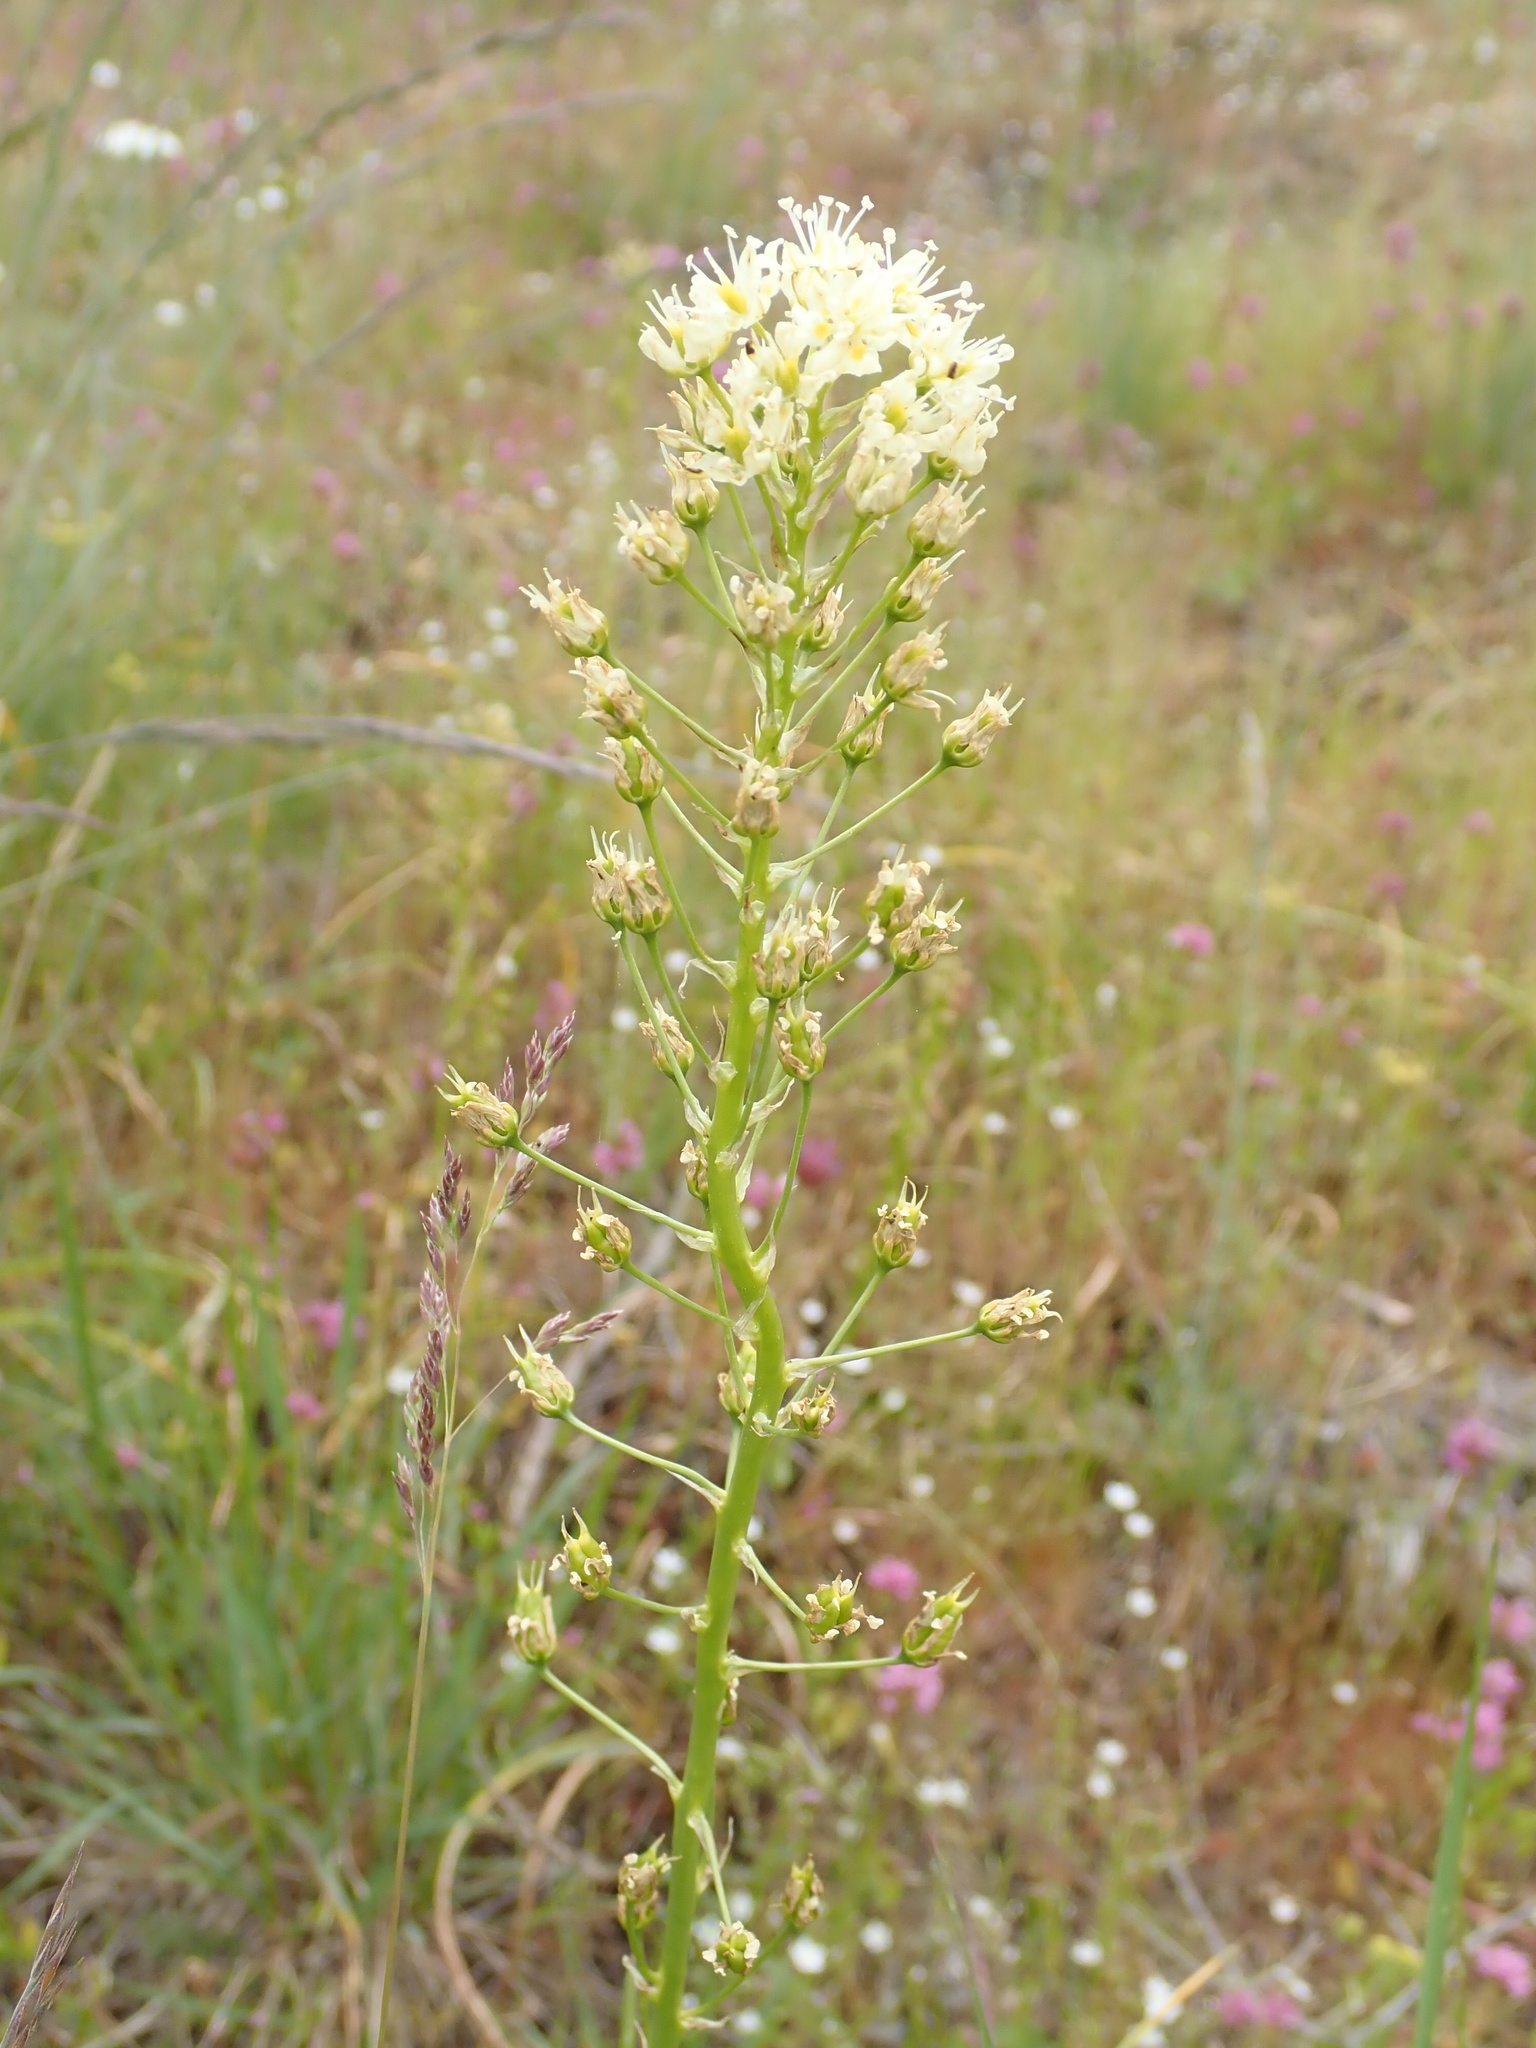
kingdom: Plantae
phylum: Tracheophyta
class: Liliopsida
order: Liliales
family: Melanthiaceae
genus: Toxicoscordion
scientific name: Toxicoscordion venenosum
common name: Meadow death camas
